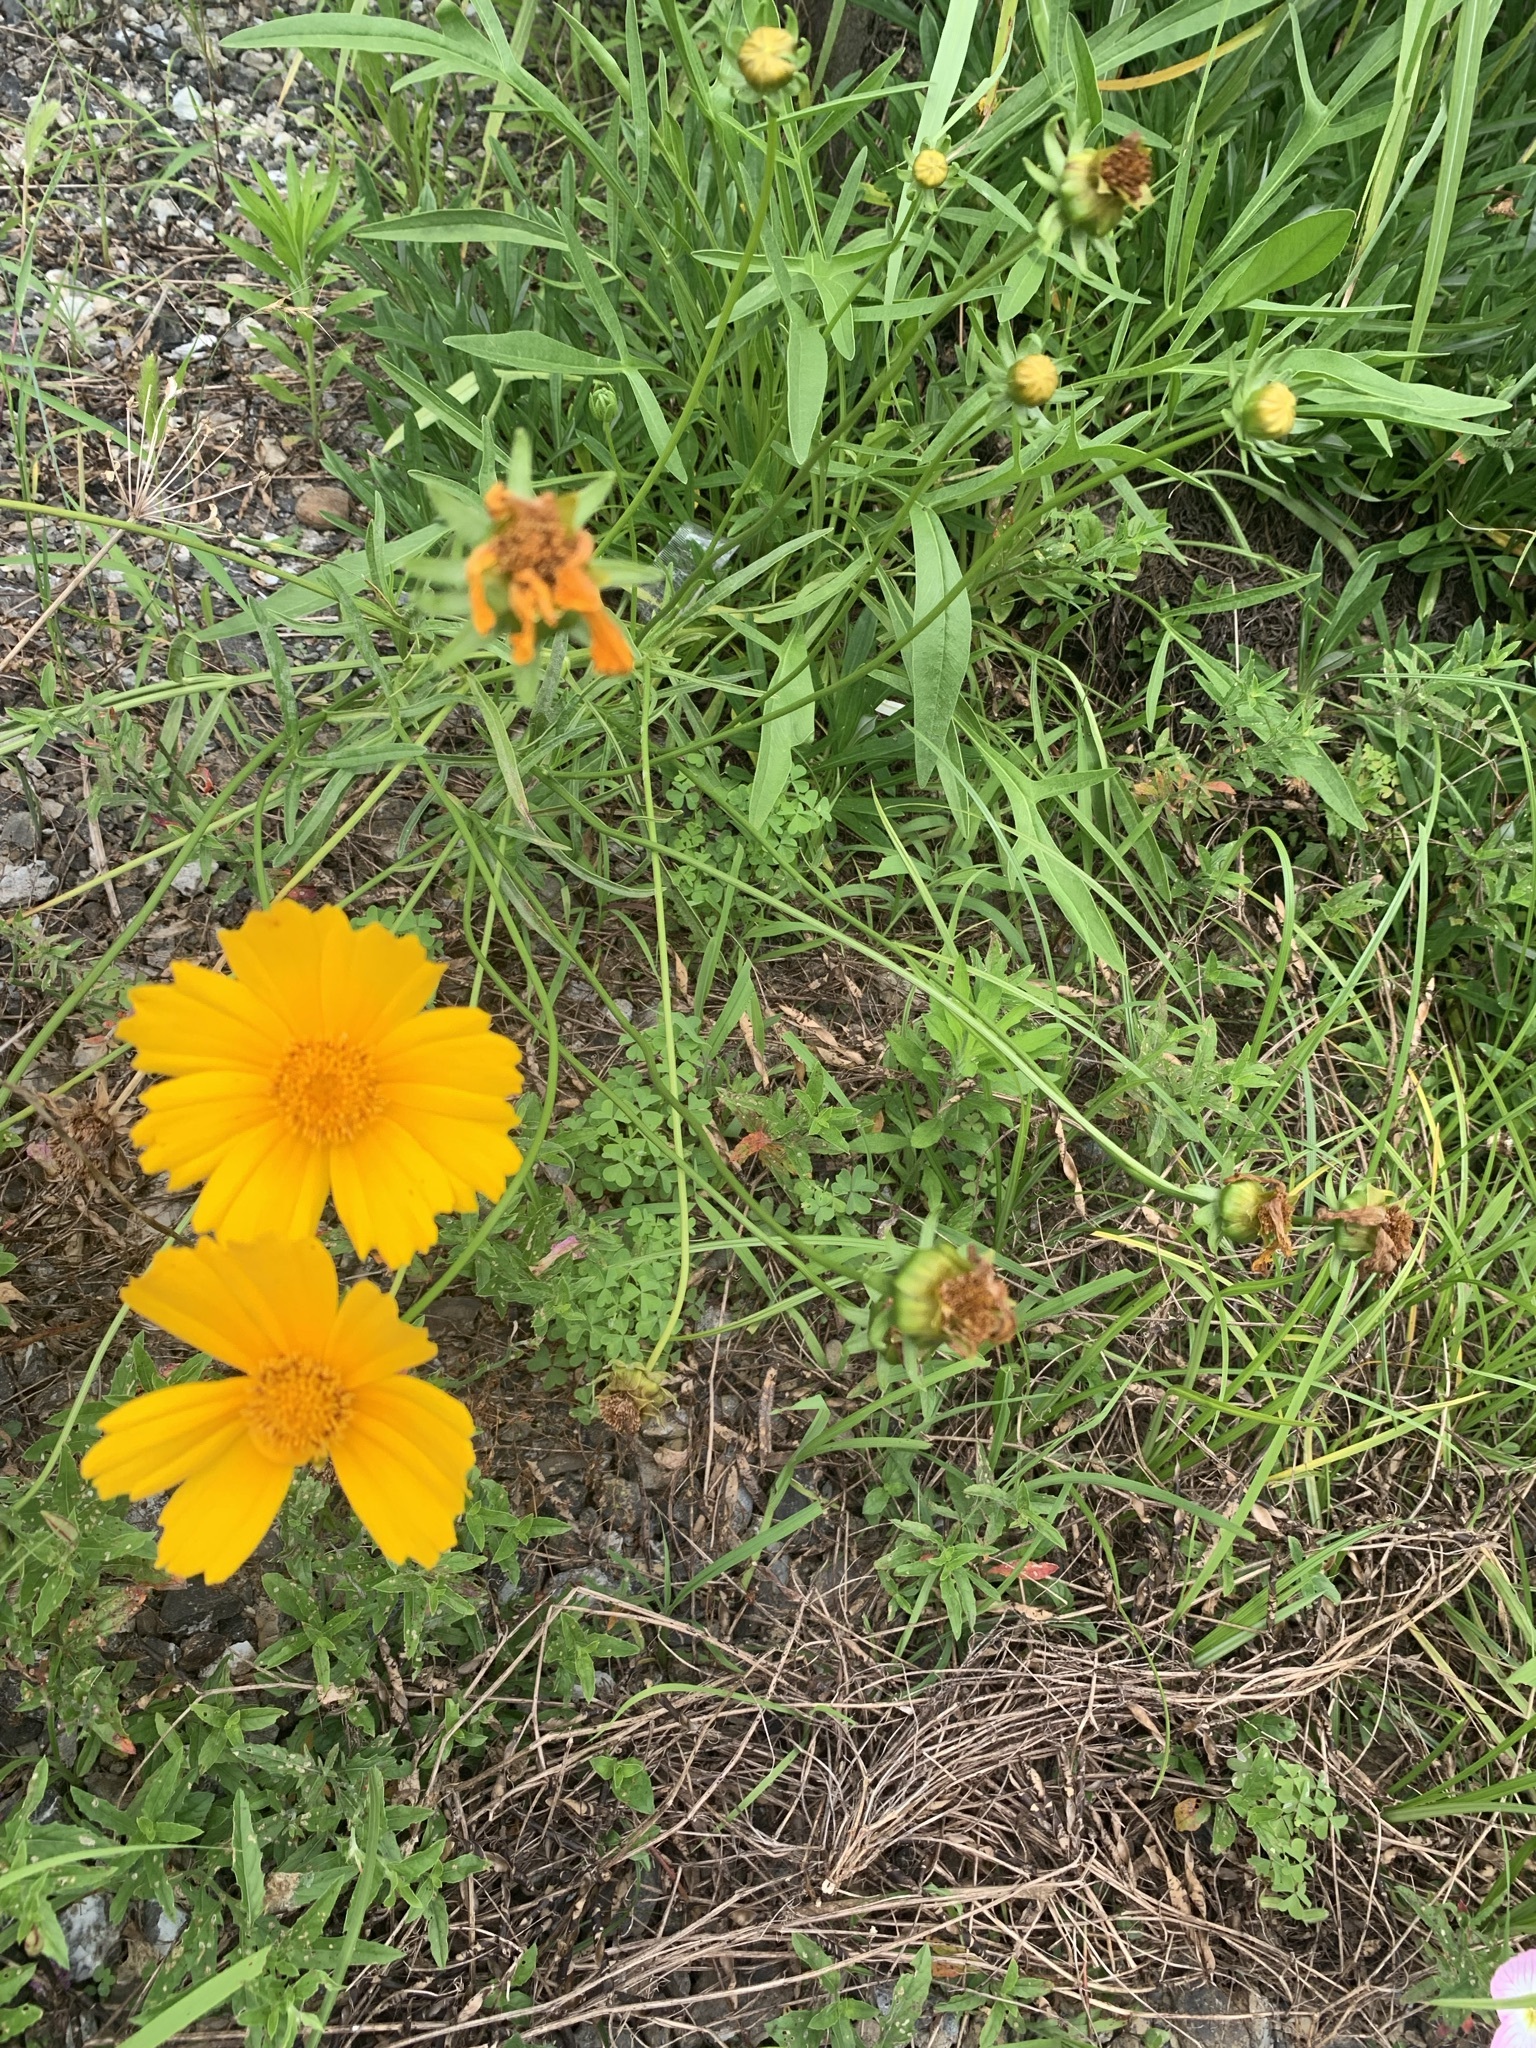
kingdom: Plantae
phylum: Tracheophyta
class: Magnoliopsida
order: Asterales
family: Asteraceae
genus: Coreopsis
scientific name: Coreopsis lanceolata
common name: Garden coreopsis
